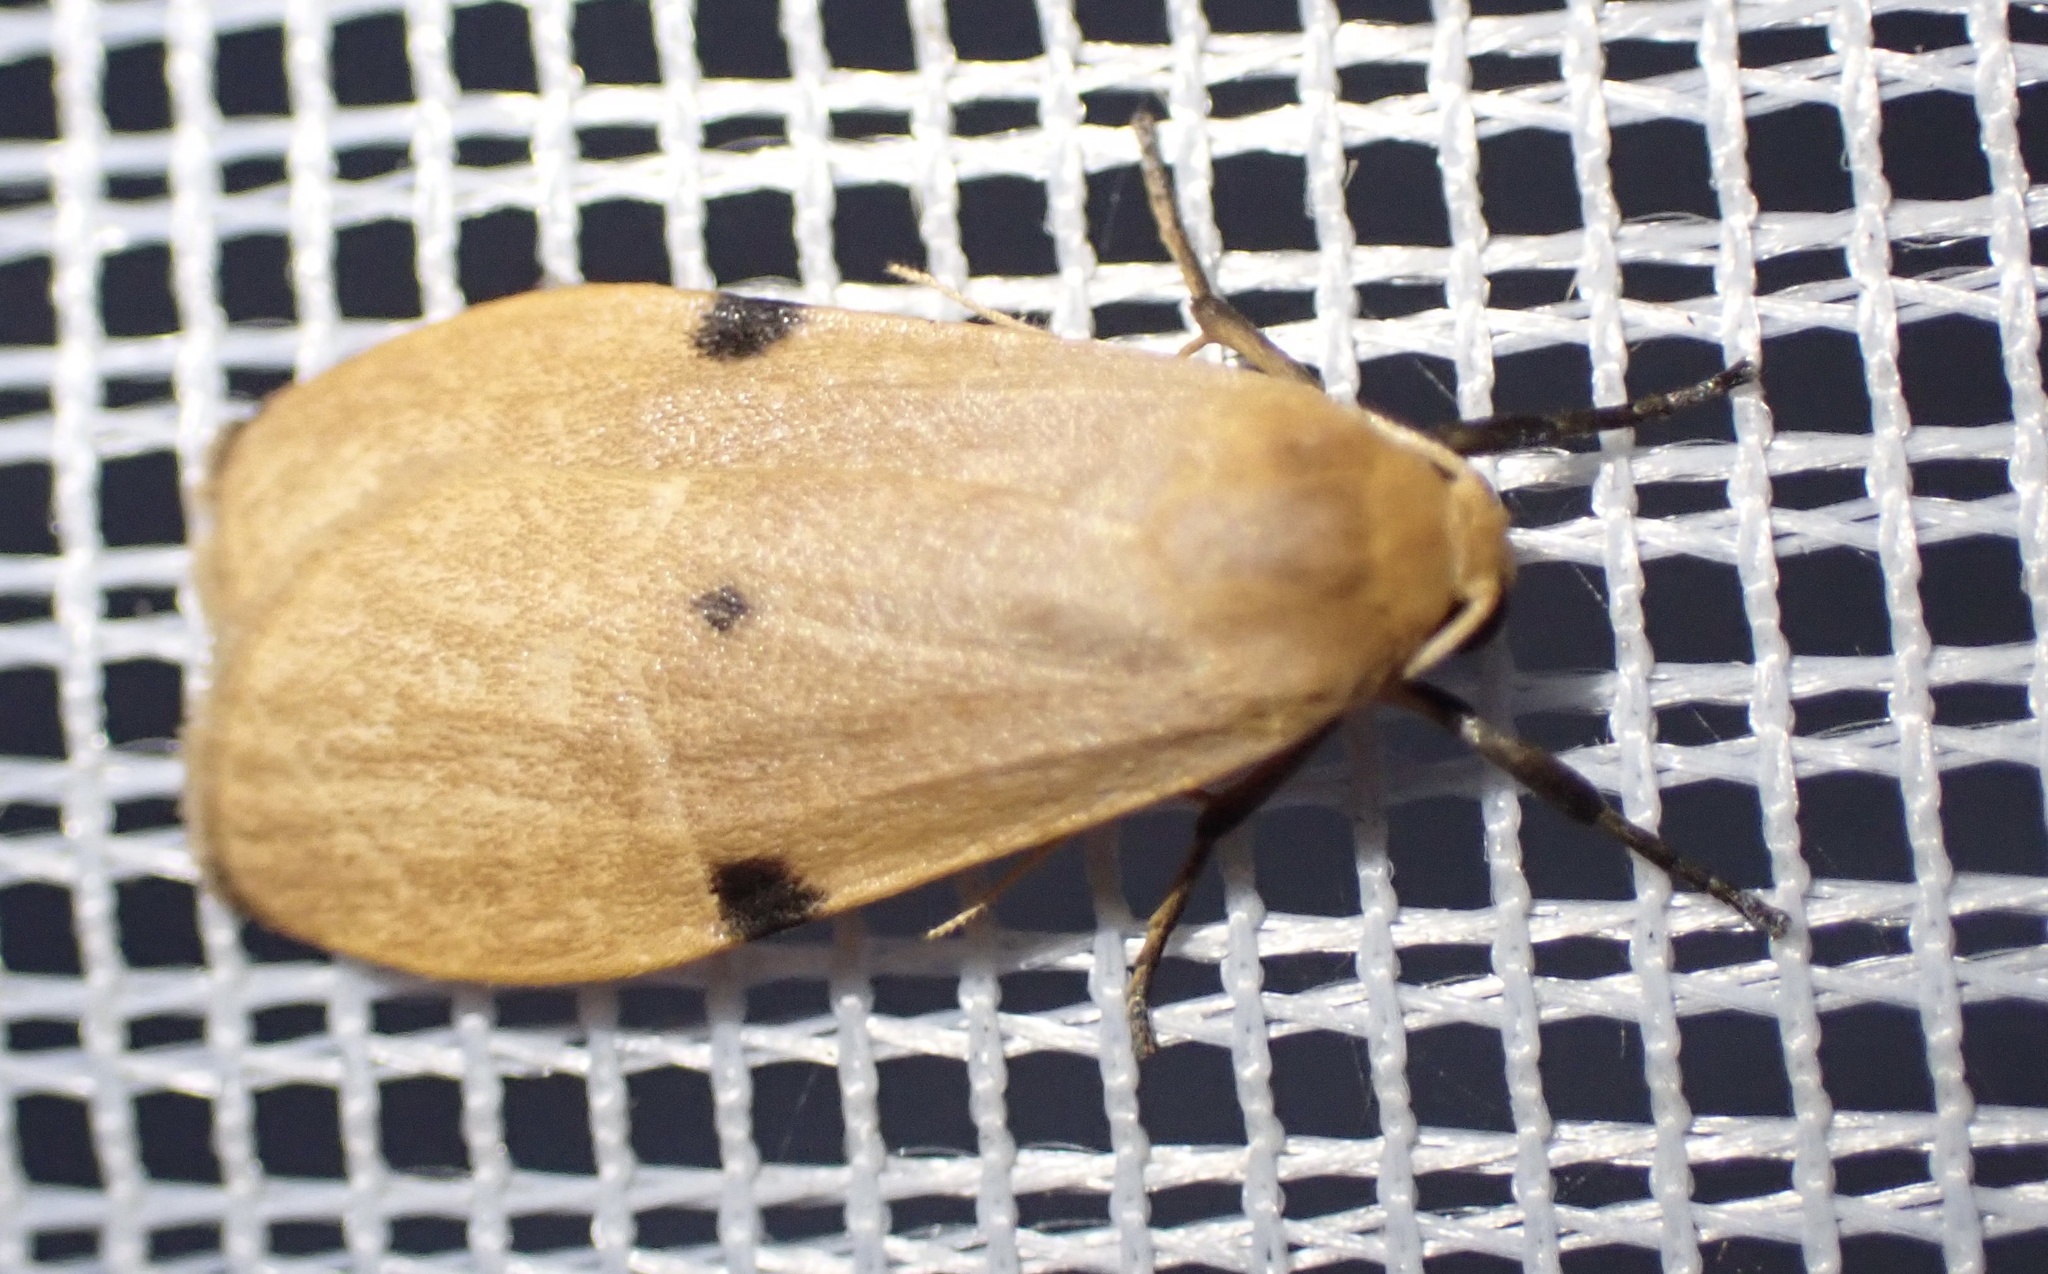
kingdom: Animalia
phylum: Arthropoda
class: Insecta
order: Lepidoptera
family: Erebidae
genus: Archithosia
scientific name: Archithosia costimacula
